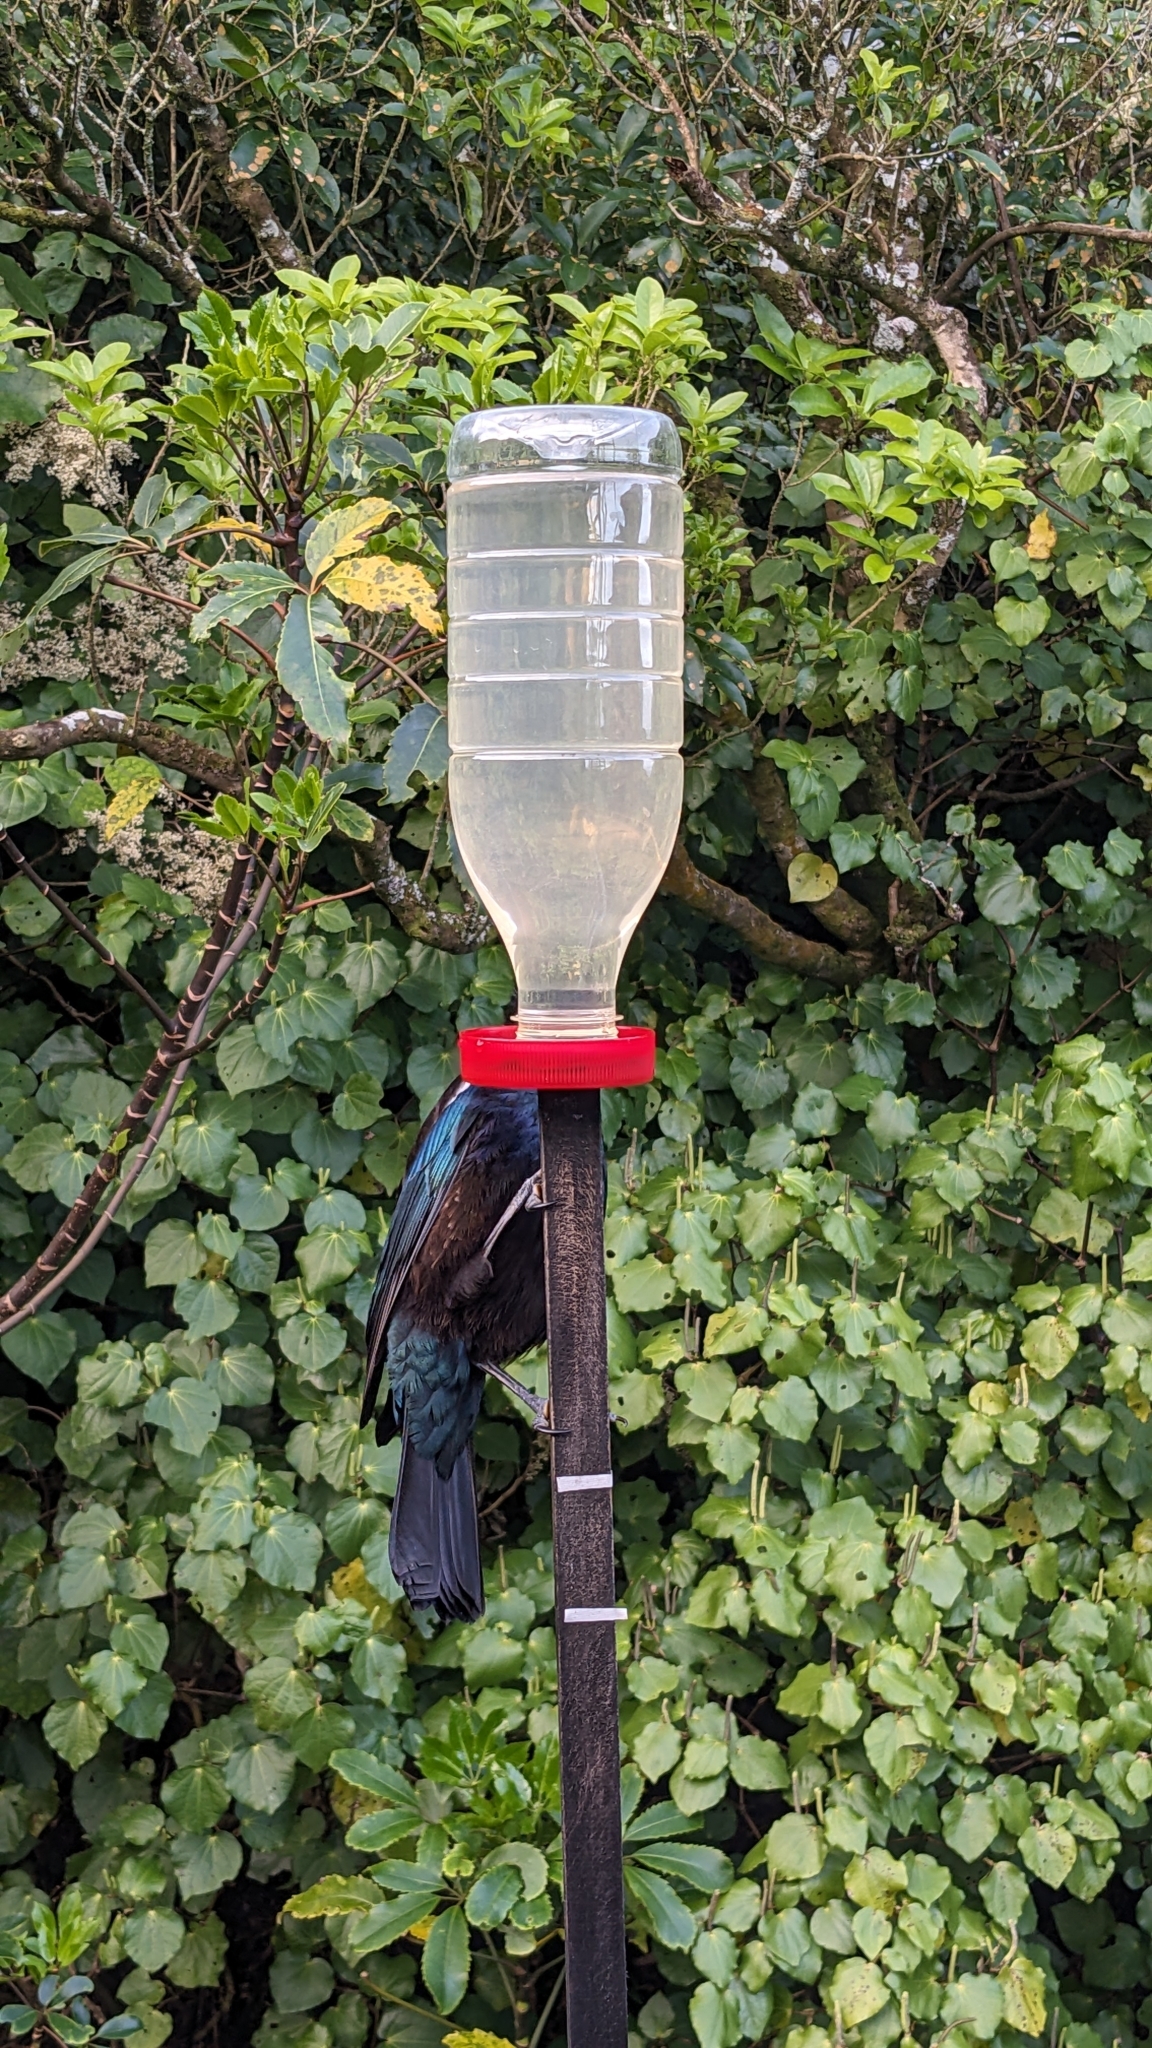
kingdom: Animalia
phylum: Chordata
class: Aves
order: Passeriformes
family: Meliphagidae
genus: Prosthemadera
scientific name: Prosthemadera novaeseelandiae
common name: Tui
